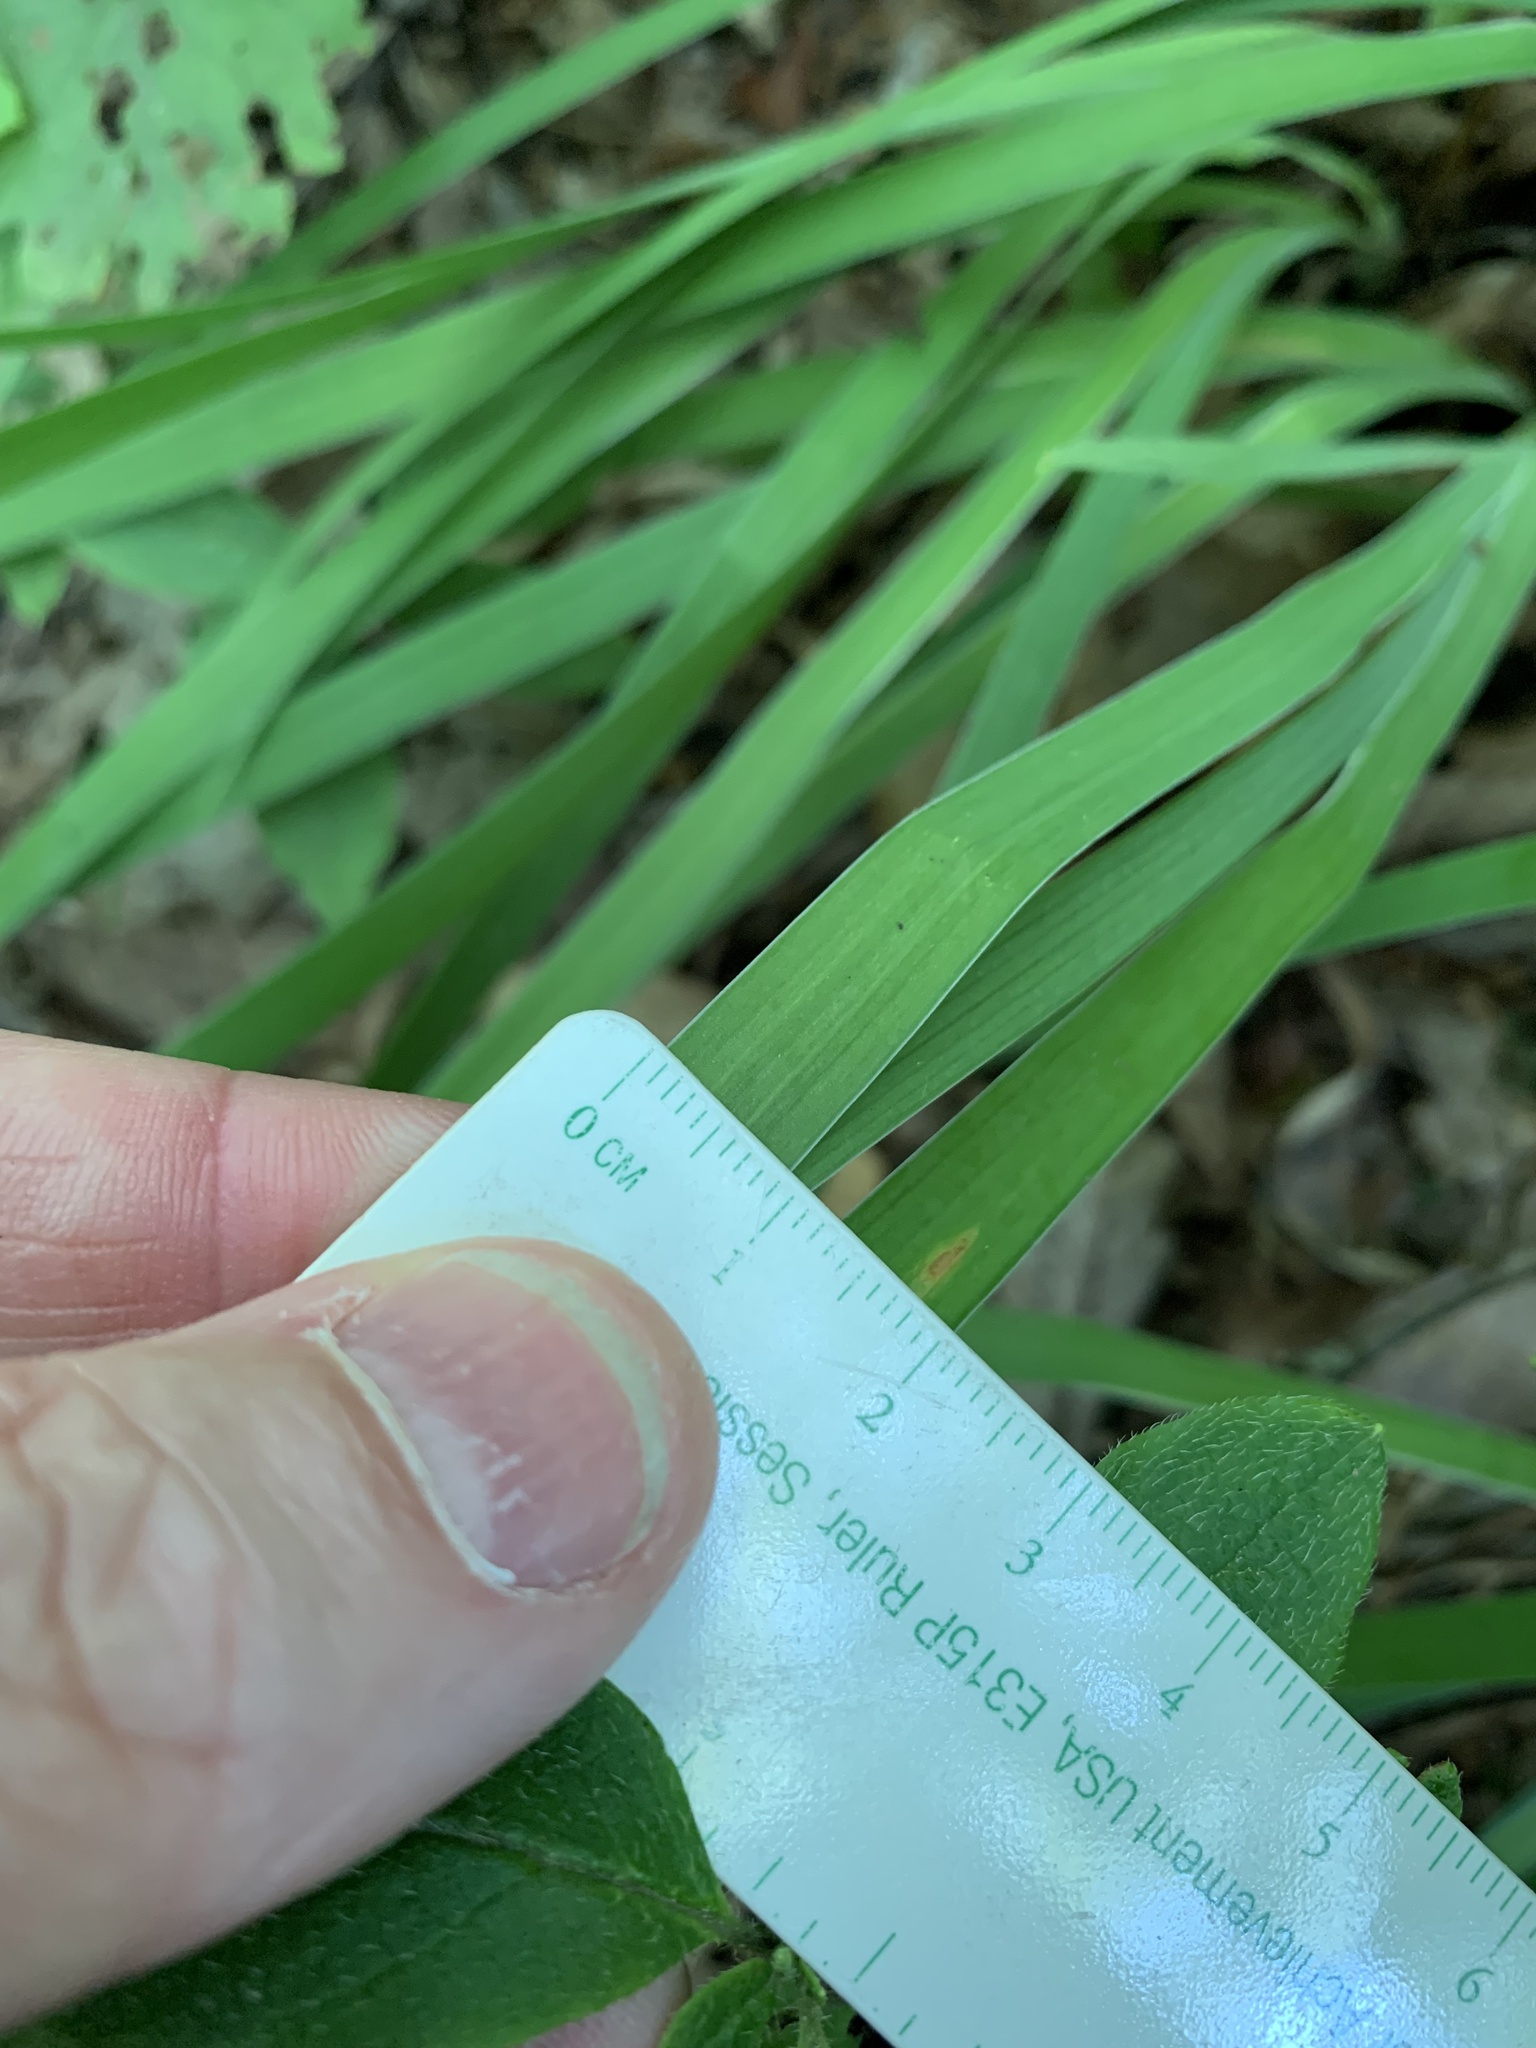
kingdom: Plantae
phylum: Tracheophyta
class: Liliopsida
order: Asparagales
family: Iridaceae
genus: Iris
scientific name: Iris verna
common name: Dwarf iris
